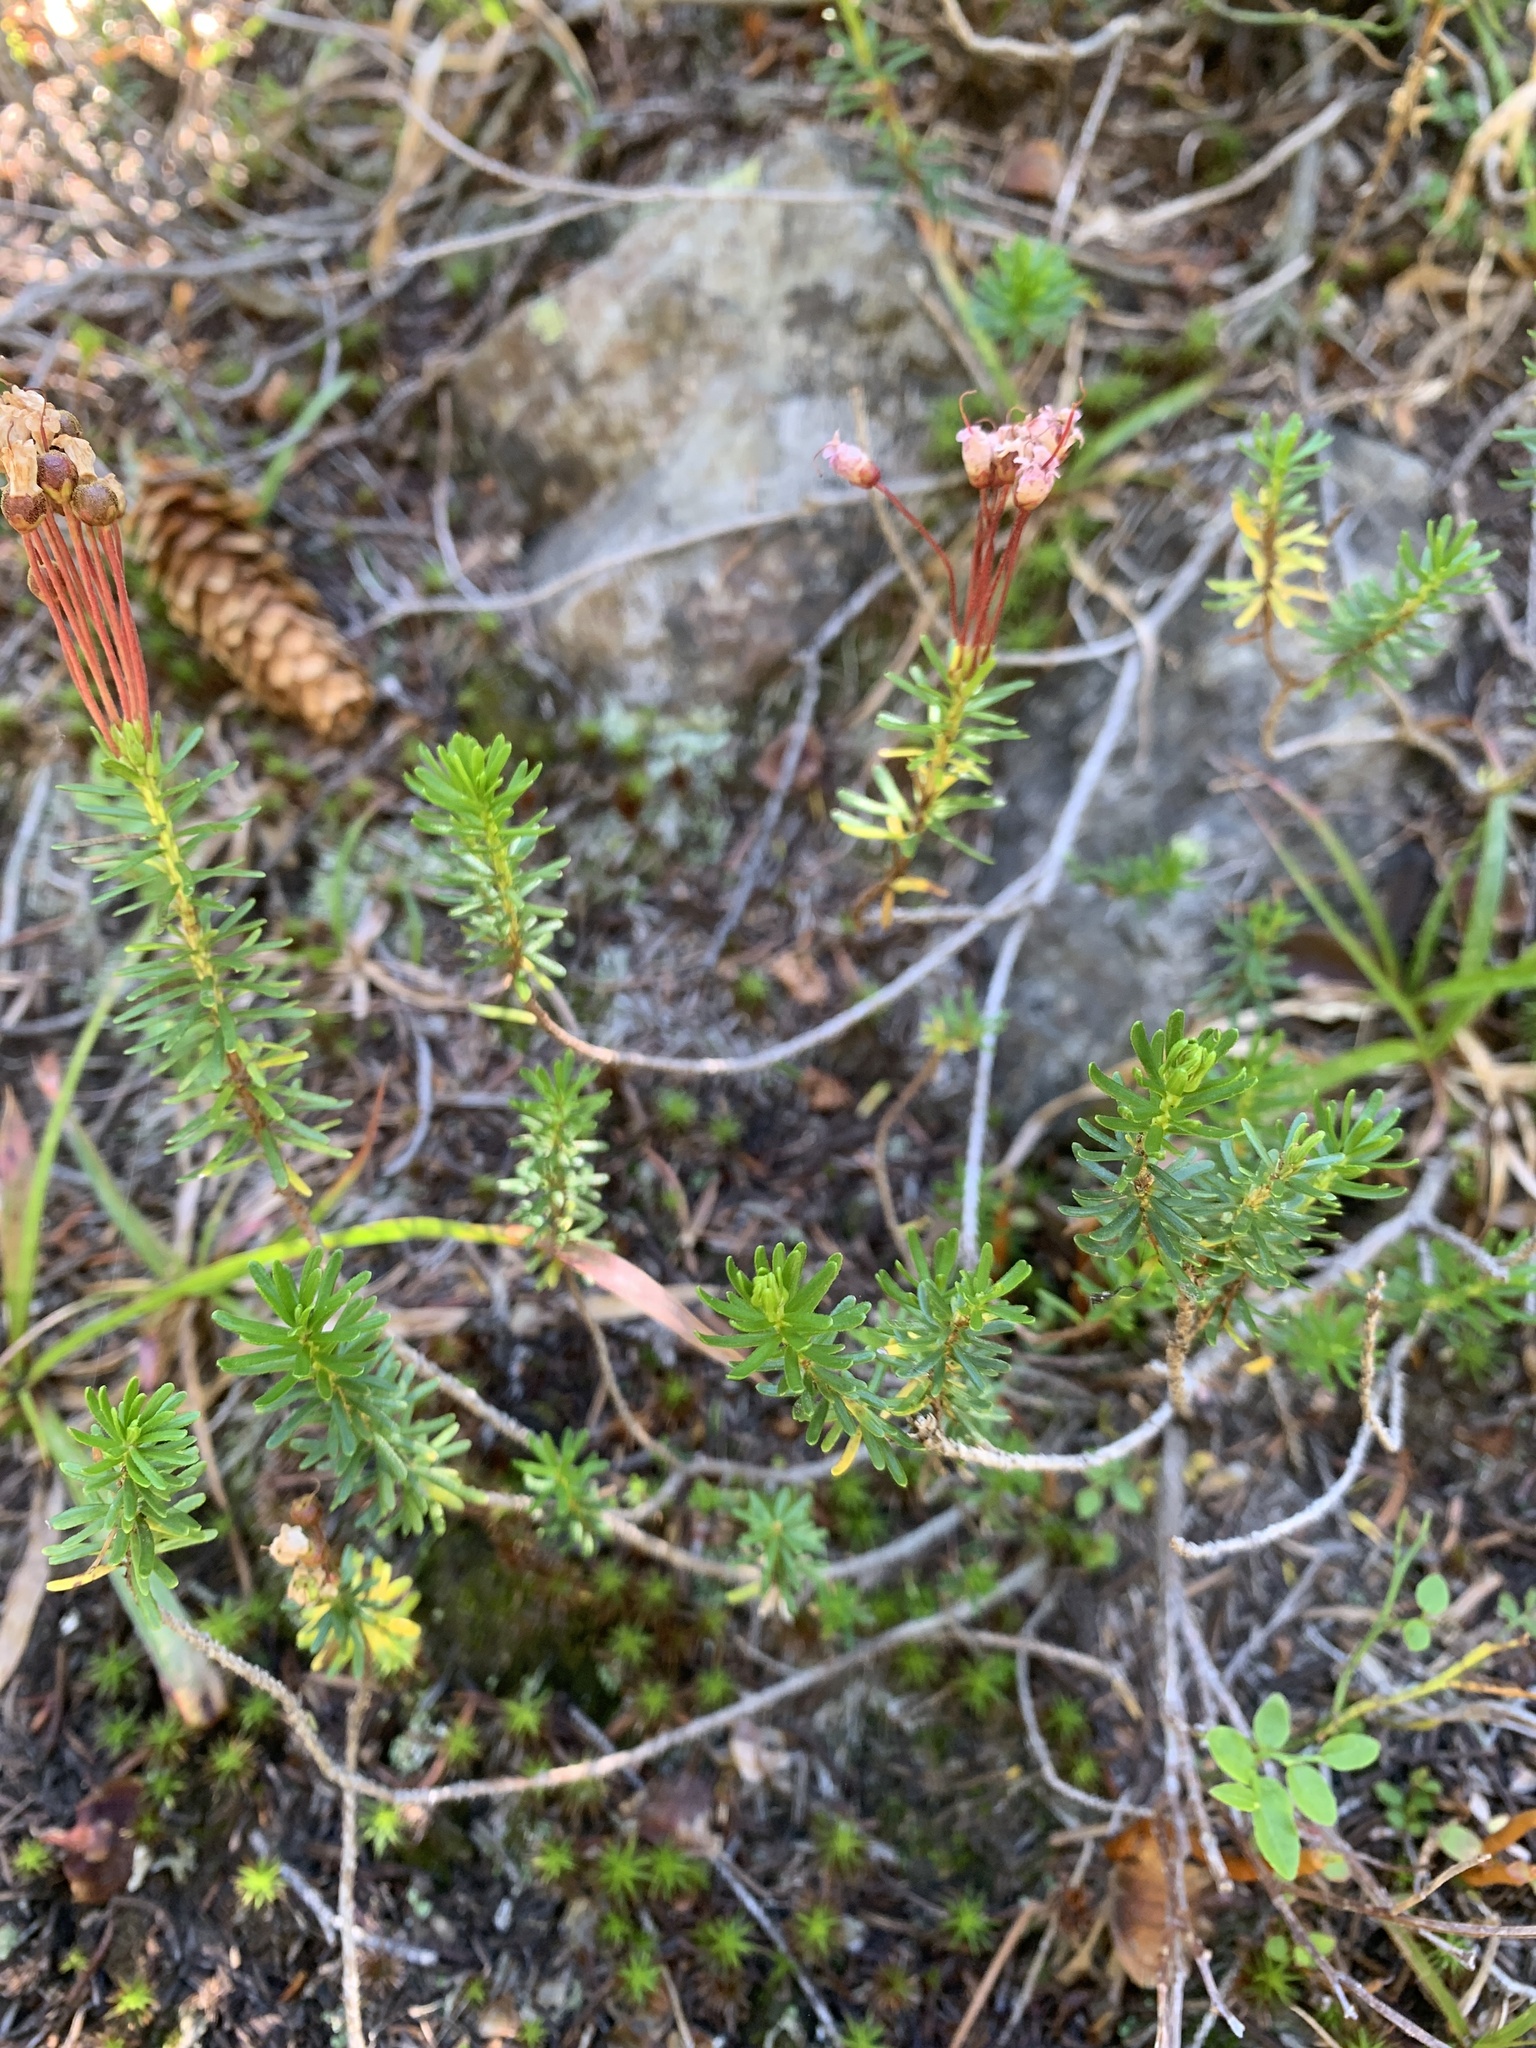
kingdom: Plantae
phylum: Tracheophyta
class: Magnoliopsida
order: Ericales
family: Ericaceae
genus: Phyllodoce
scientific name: Phyllodoce empetriformis
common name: Pink mountain heather
